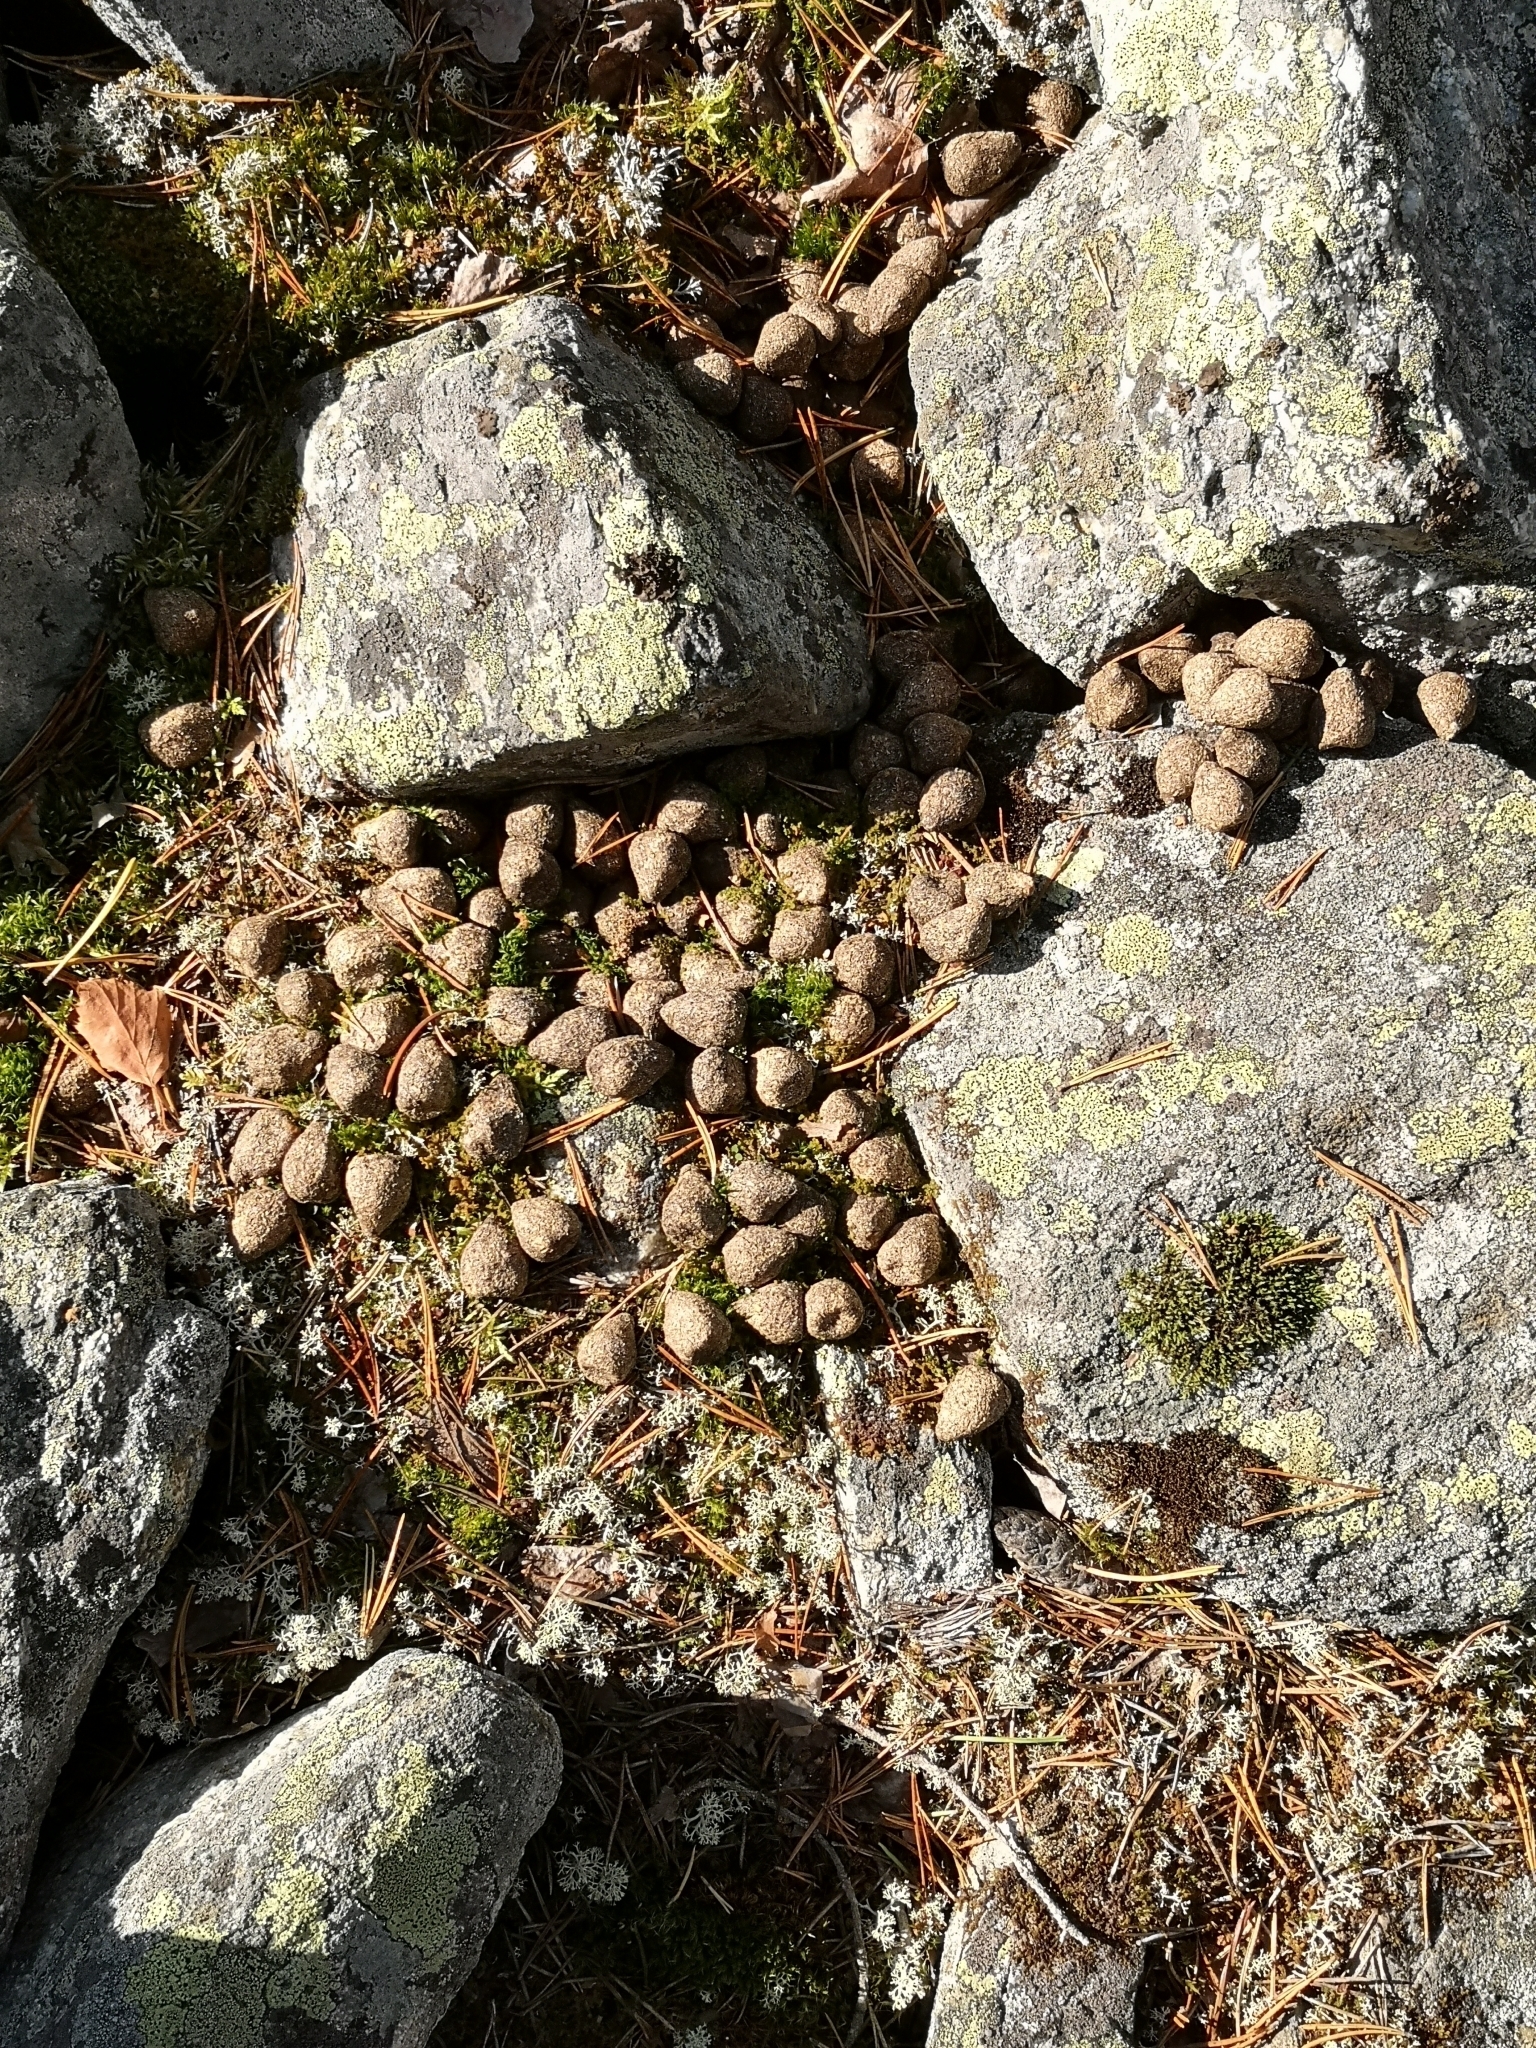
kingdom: Animalia
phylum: Chordata
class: Mammalia
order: Artiodactyla
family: Cervidae
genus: Alces
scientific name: Alces alces
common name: Moose
